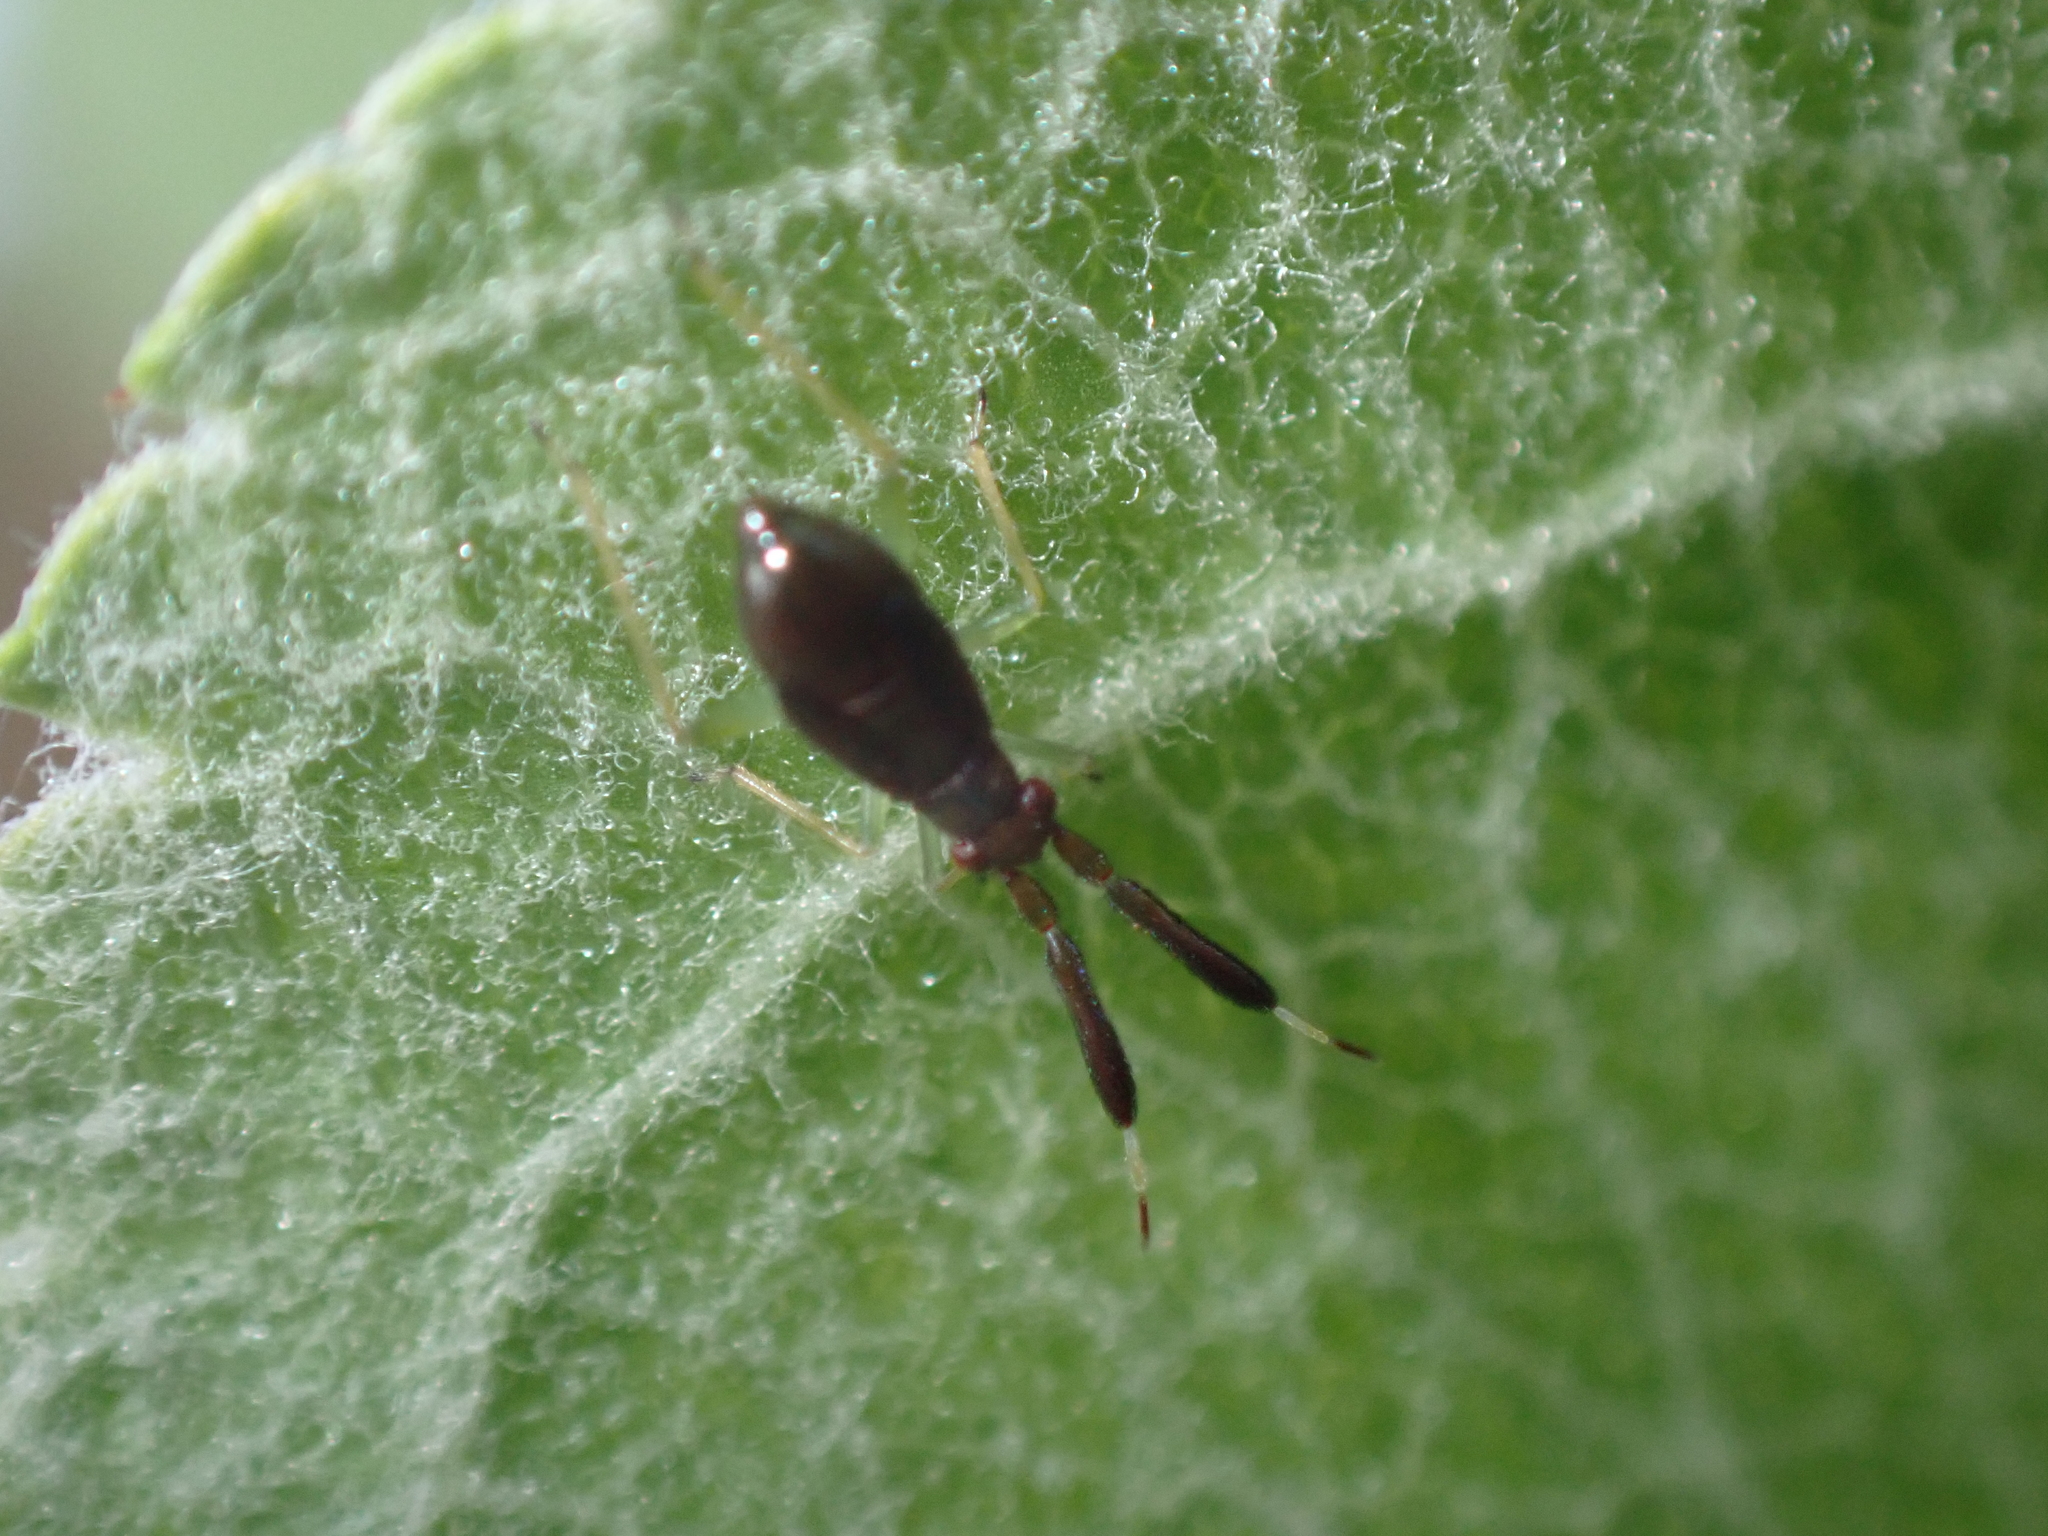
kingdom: Animalia
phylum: Arthropoda
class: Insecta
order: Hemiptera
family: Miridae
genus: Heterotoma
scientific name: Heterotoma planicornis
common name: Plant bug
